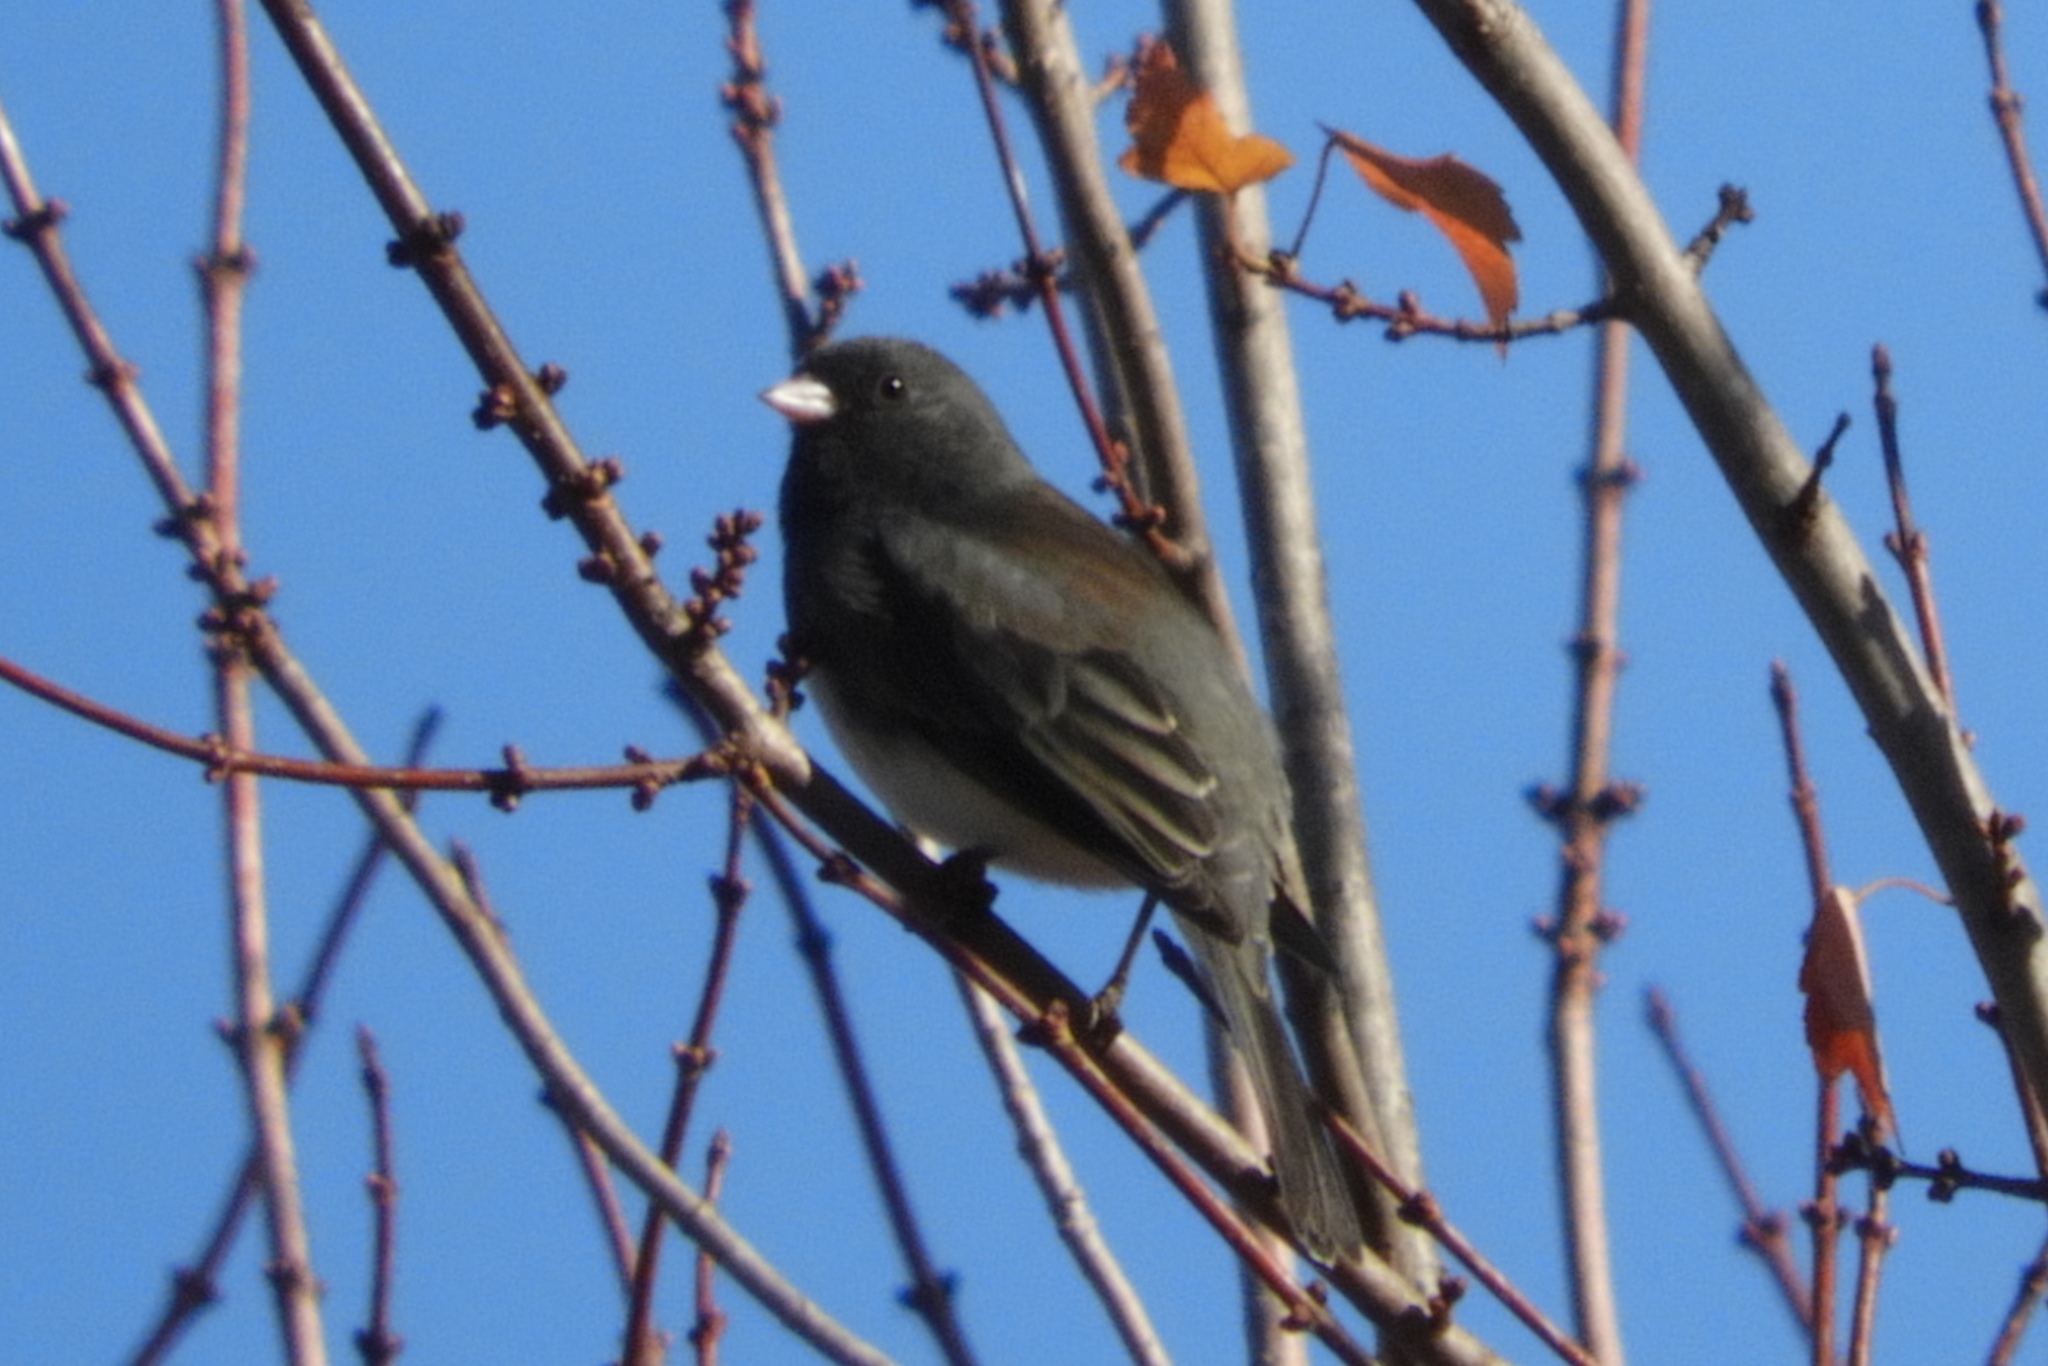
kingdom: Animalia
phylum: Chordata
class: Aves
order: Passeriformes
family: Passerellidae
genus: Junco
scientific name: Junco hyemalis
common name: Dark-eyed junco
